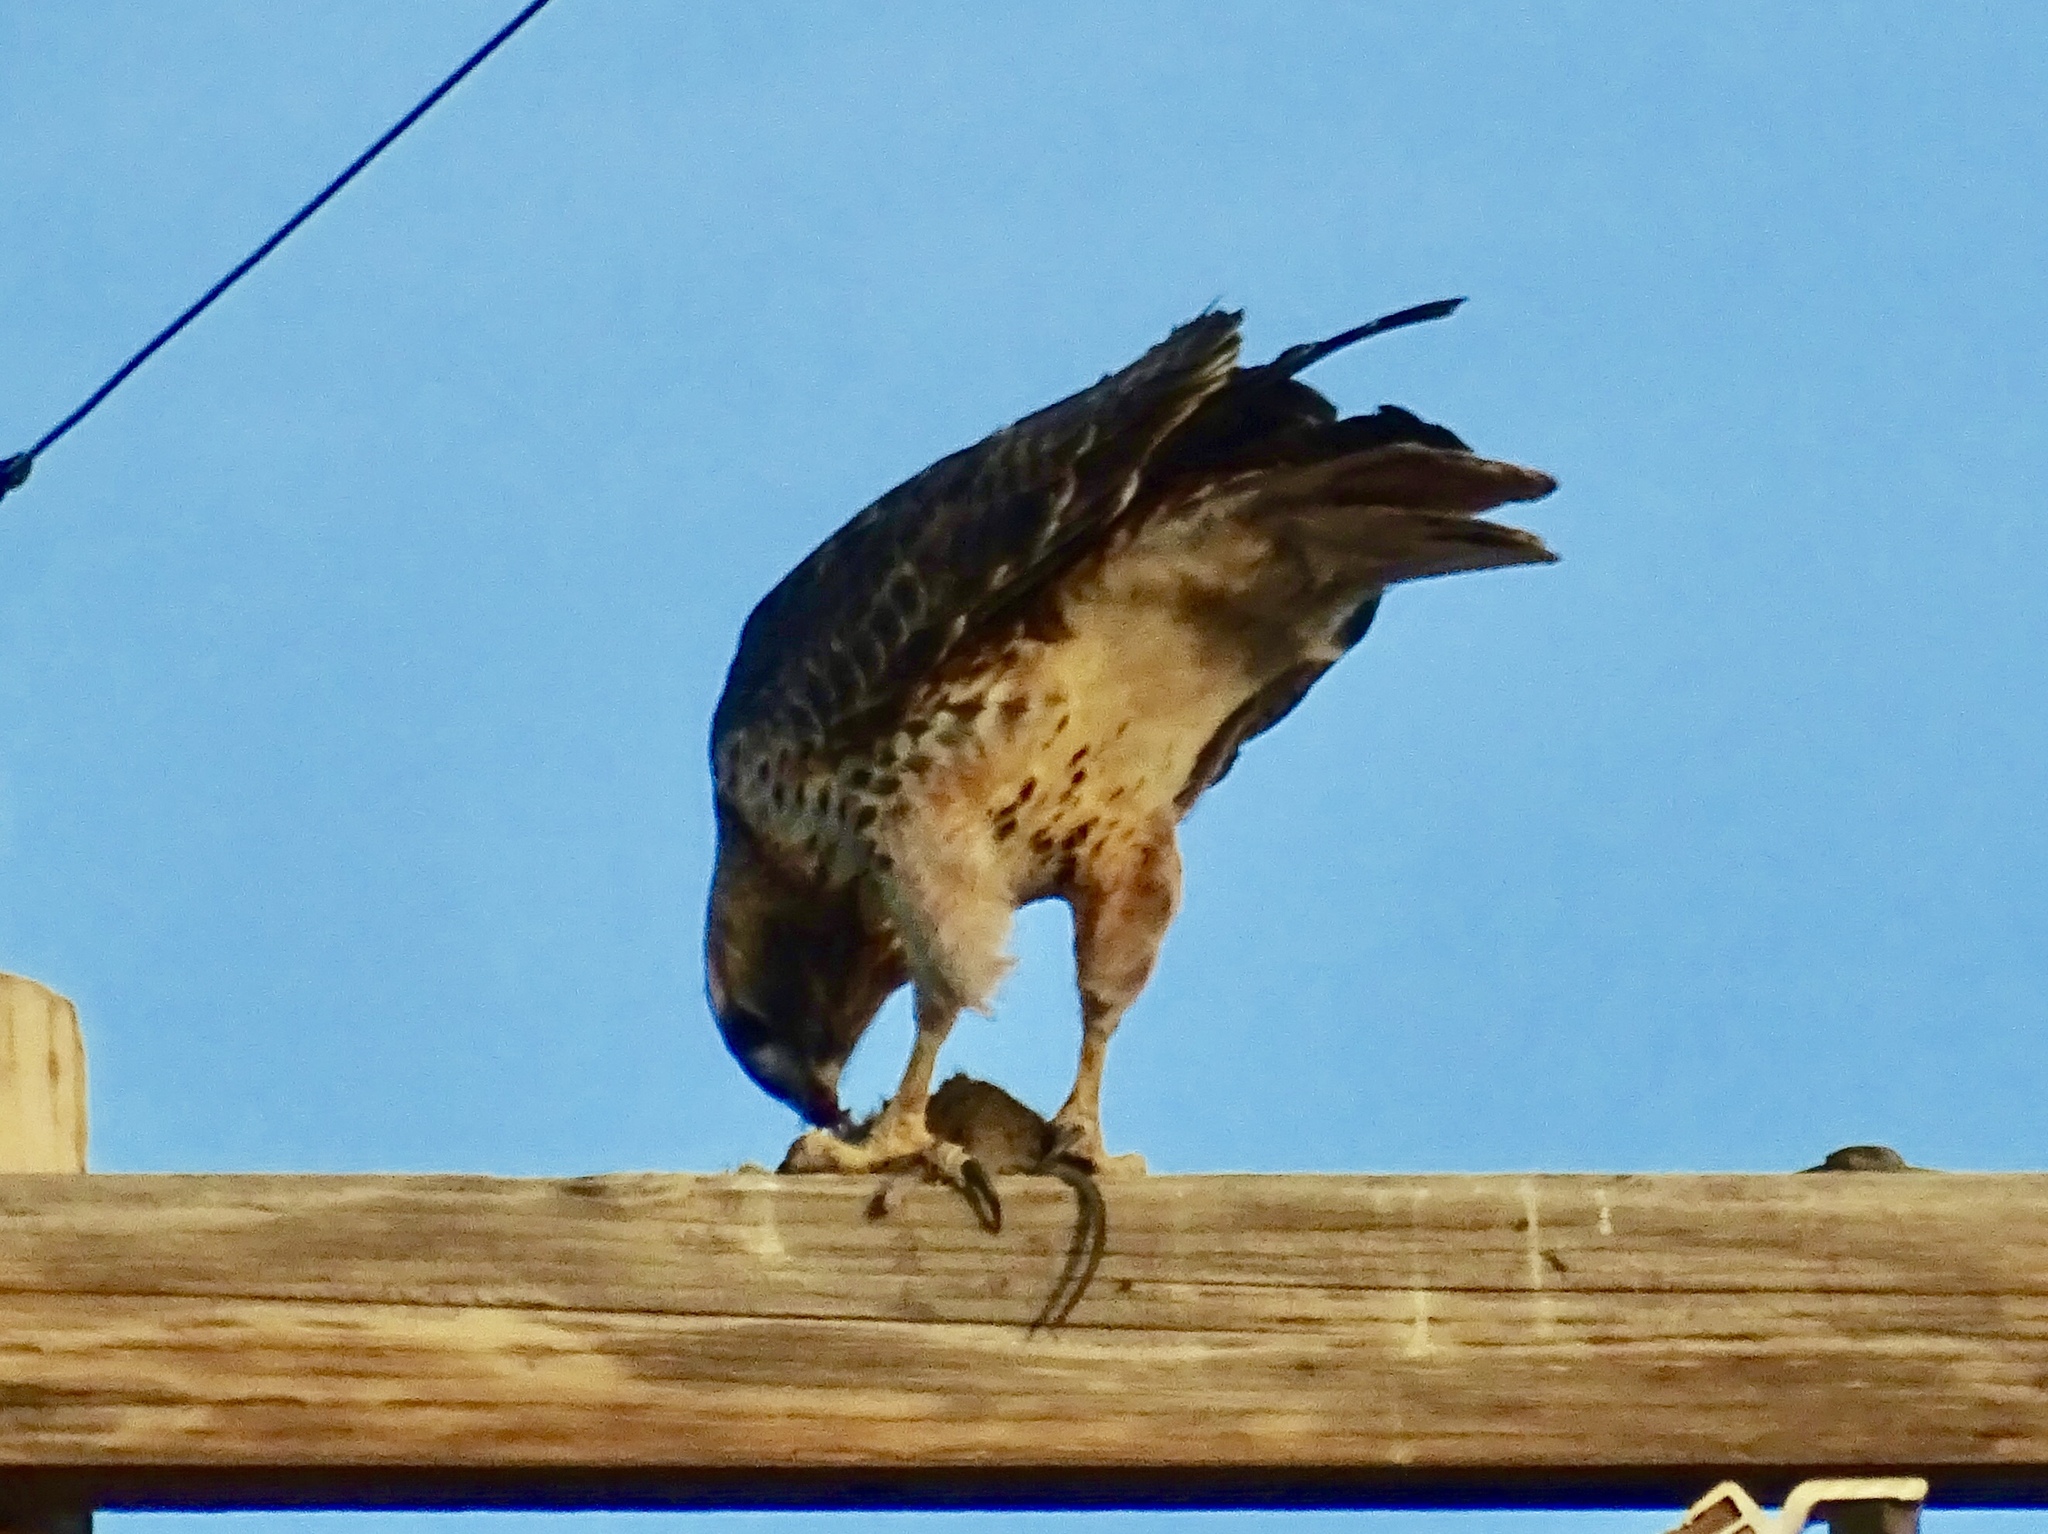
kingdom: Animalia
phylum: Chordata
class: Aves
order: Accipitriformes
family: Accipitridae
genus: Buteo
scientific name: Buteo jamaicensis
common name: Red-tailed hawk
